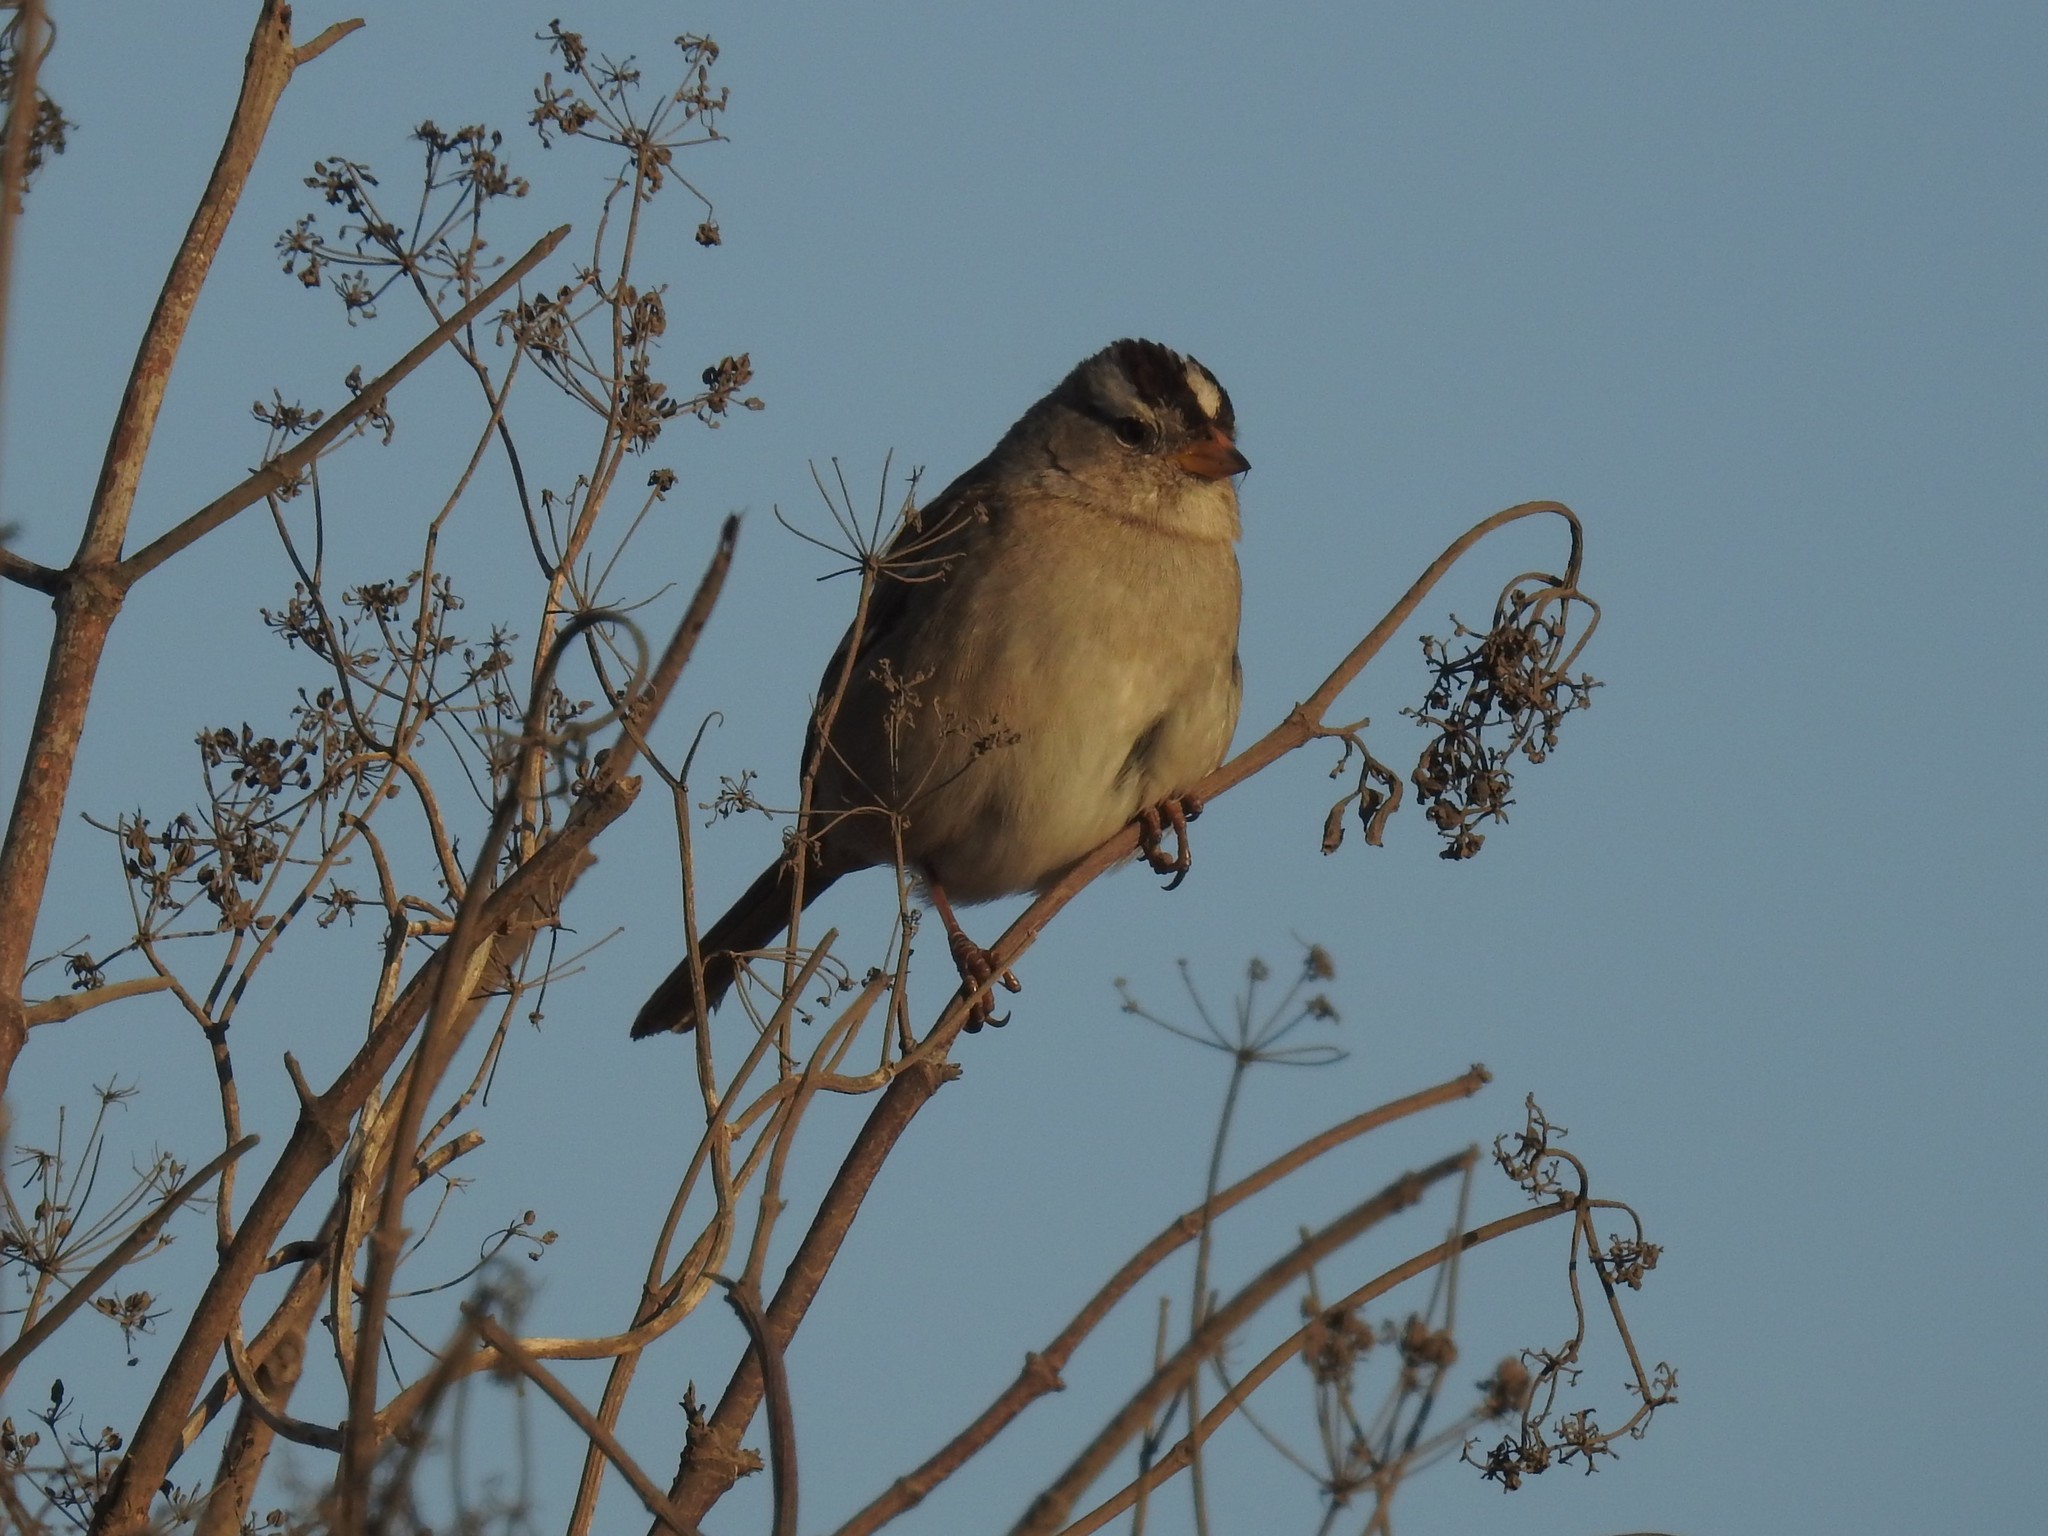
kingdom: Animalia
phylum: Chordata
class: Aves
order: Passeriformes
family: Passerellidae
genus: Zonotrichia
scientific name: Zonotrichia leucophrys
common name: White-crowned sparrow
